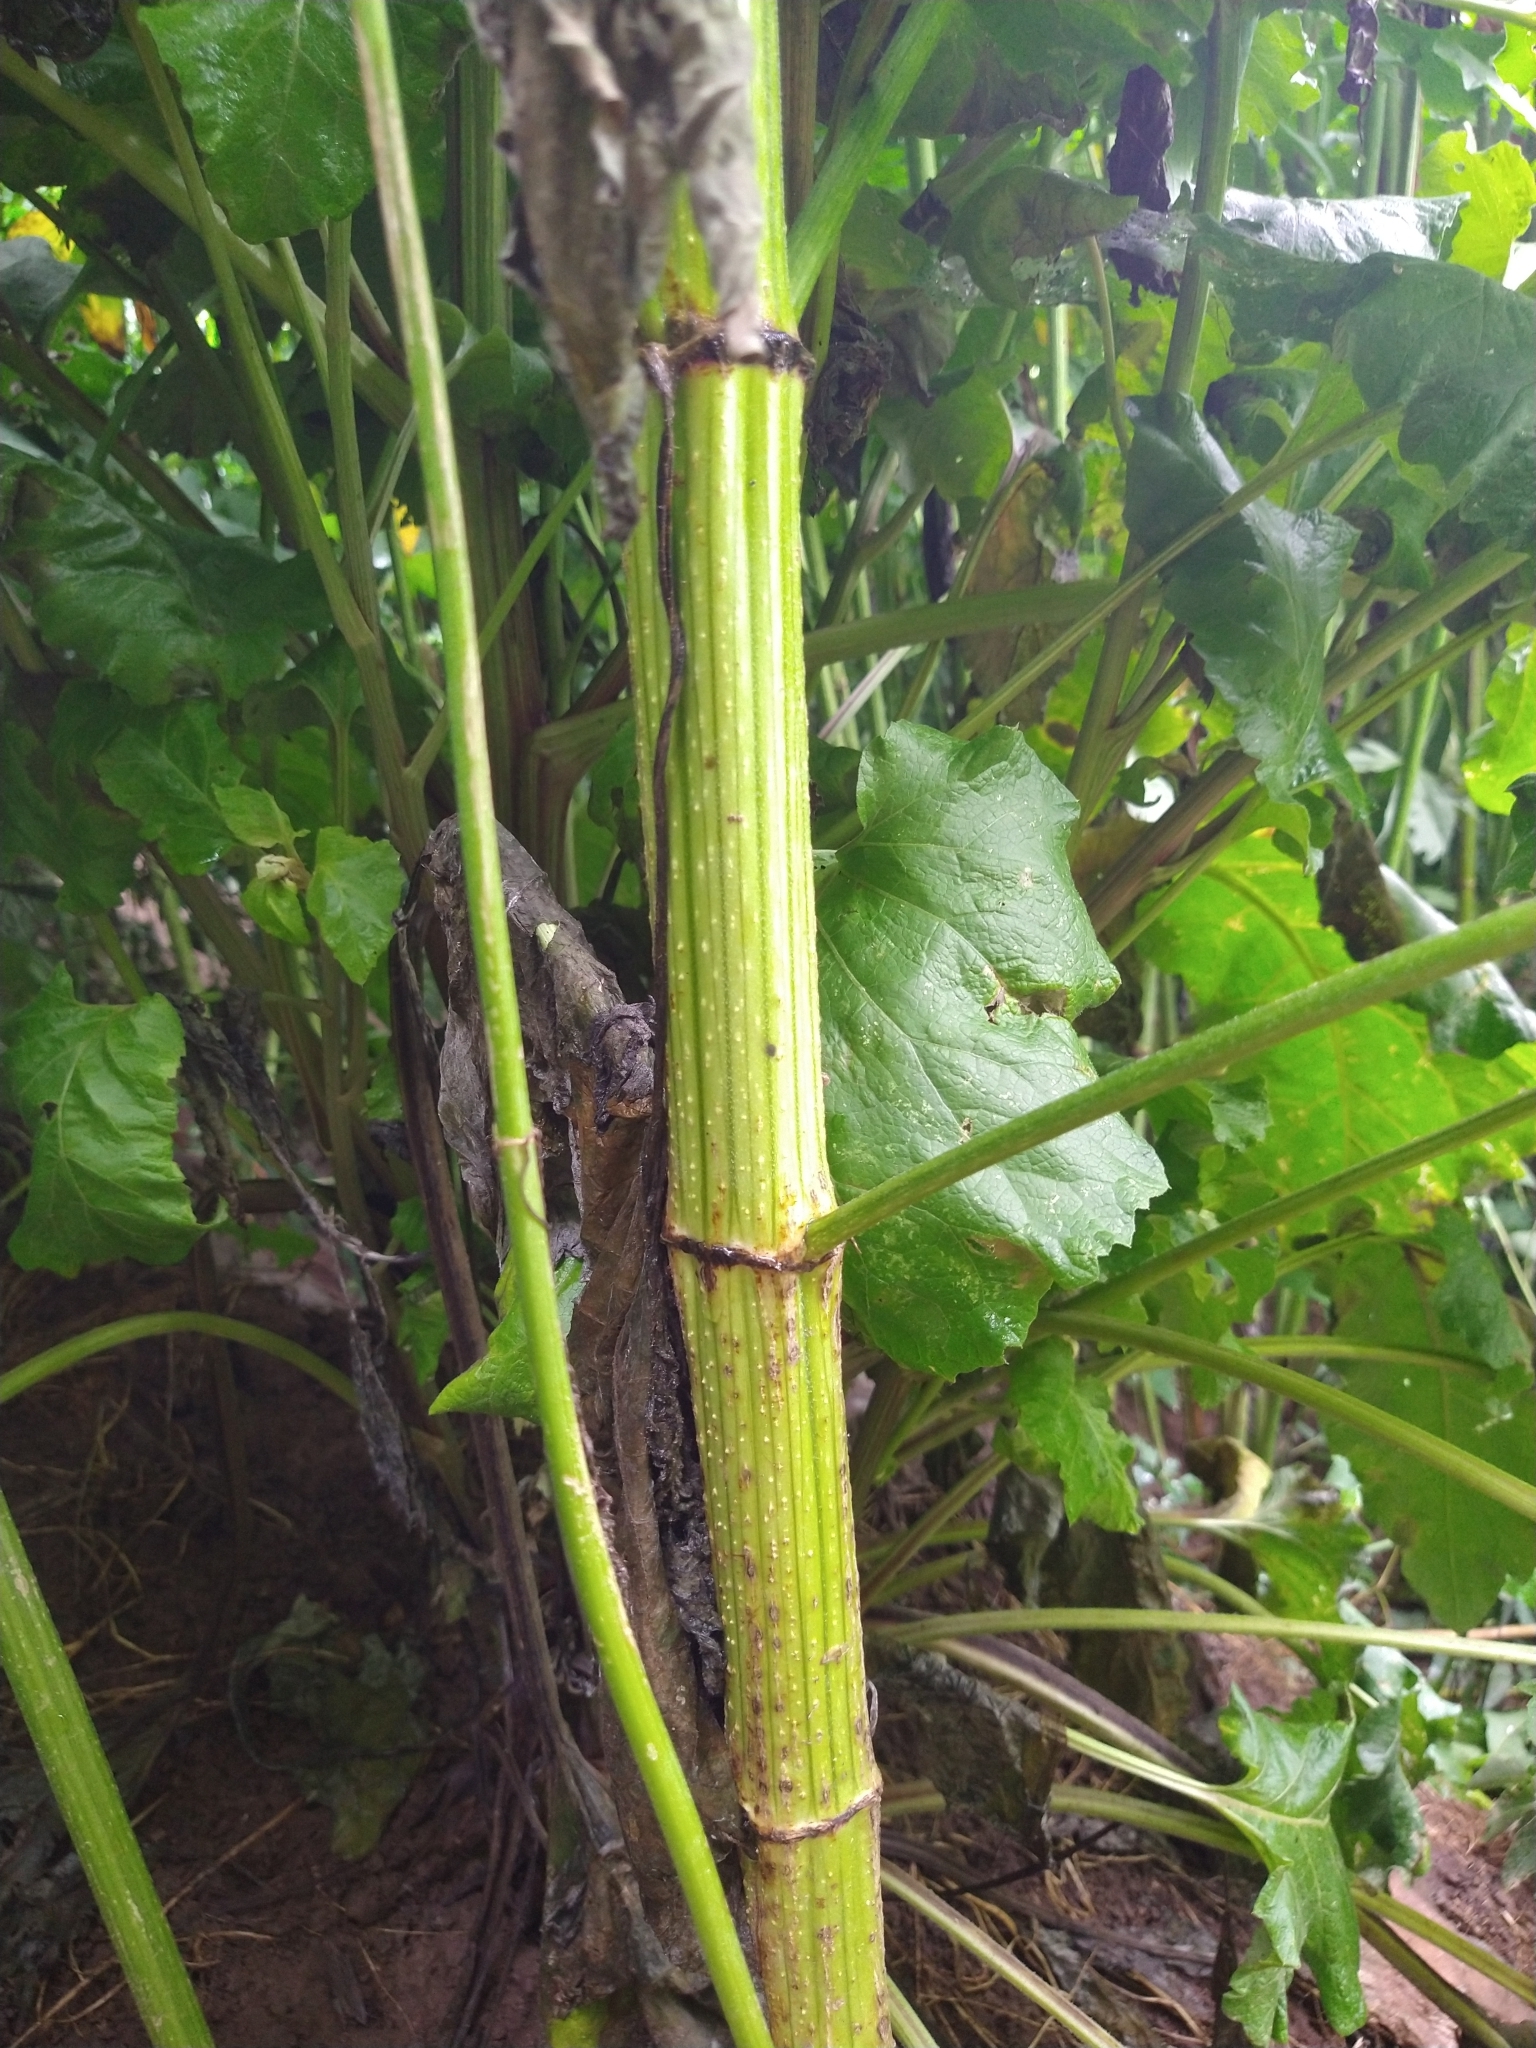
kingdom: Plantae
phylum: Tracheophyta
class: Magnoliopsida
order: Asterales
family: Asteraceae
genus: Ambrosia
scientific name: Ambrosia trifida
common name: Giant ragweed
